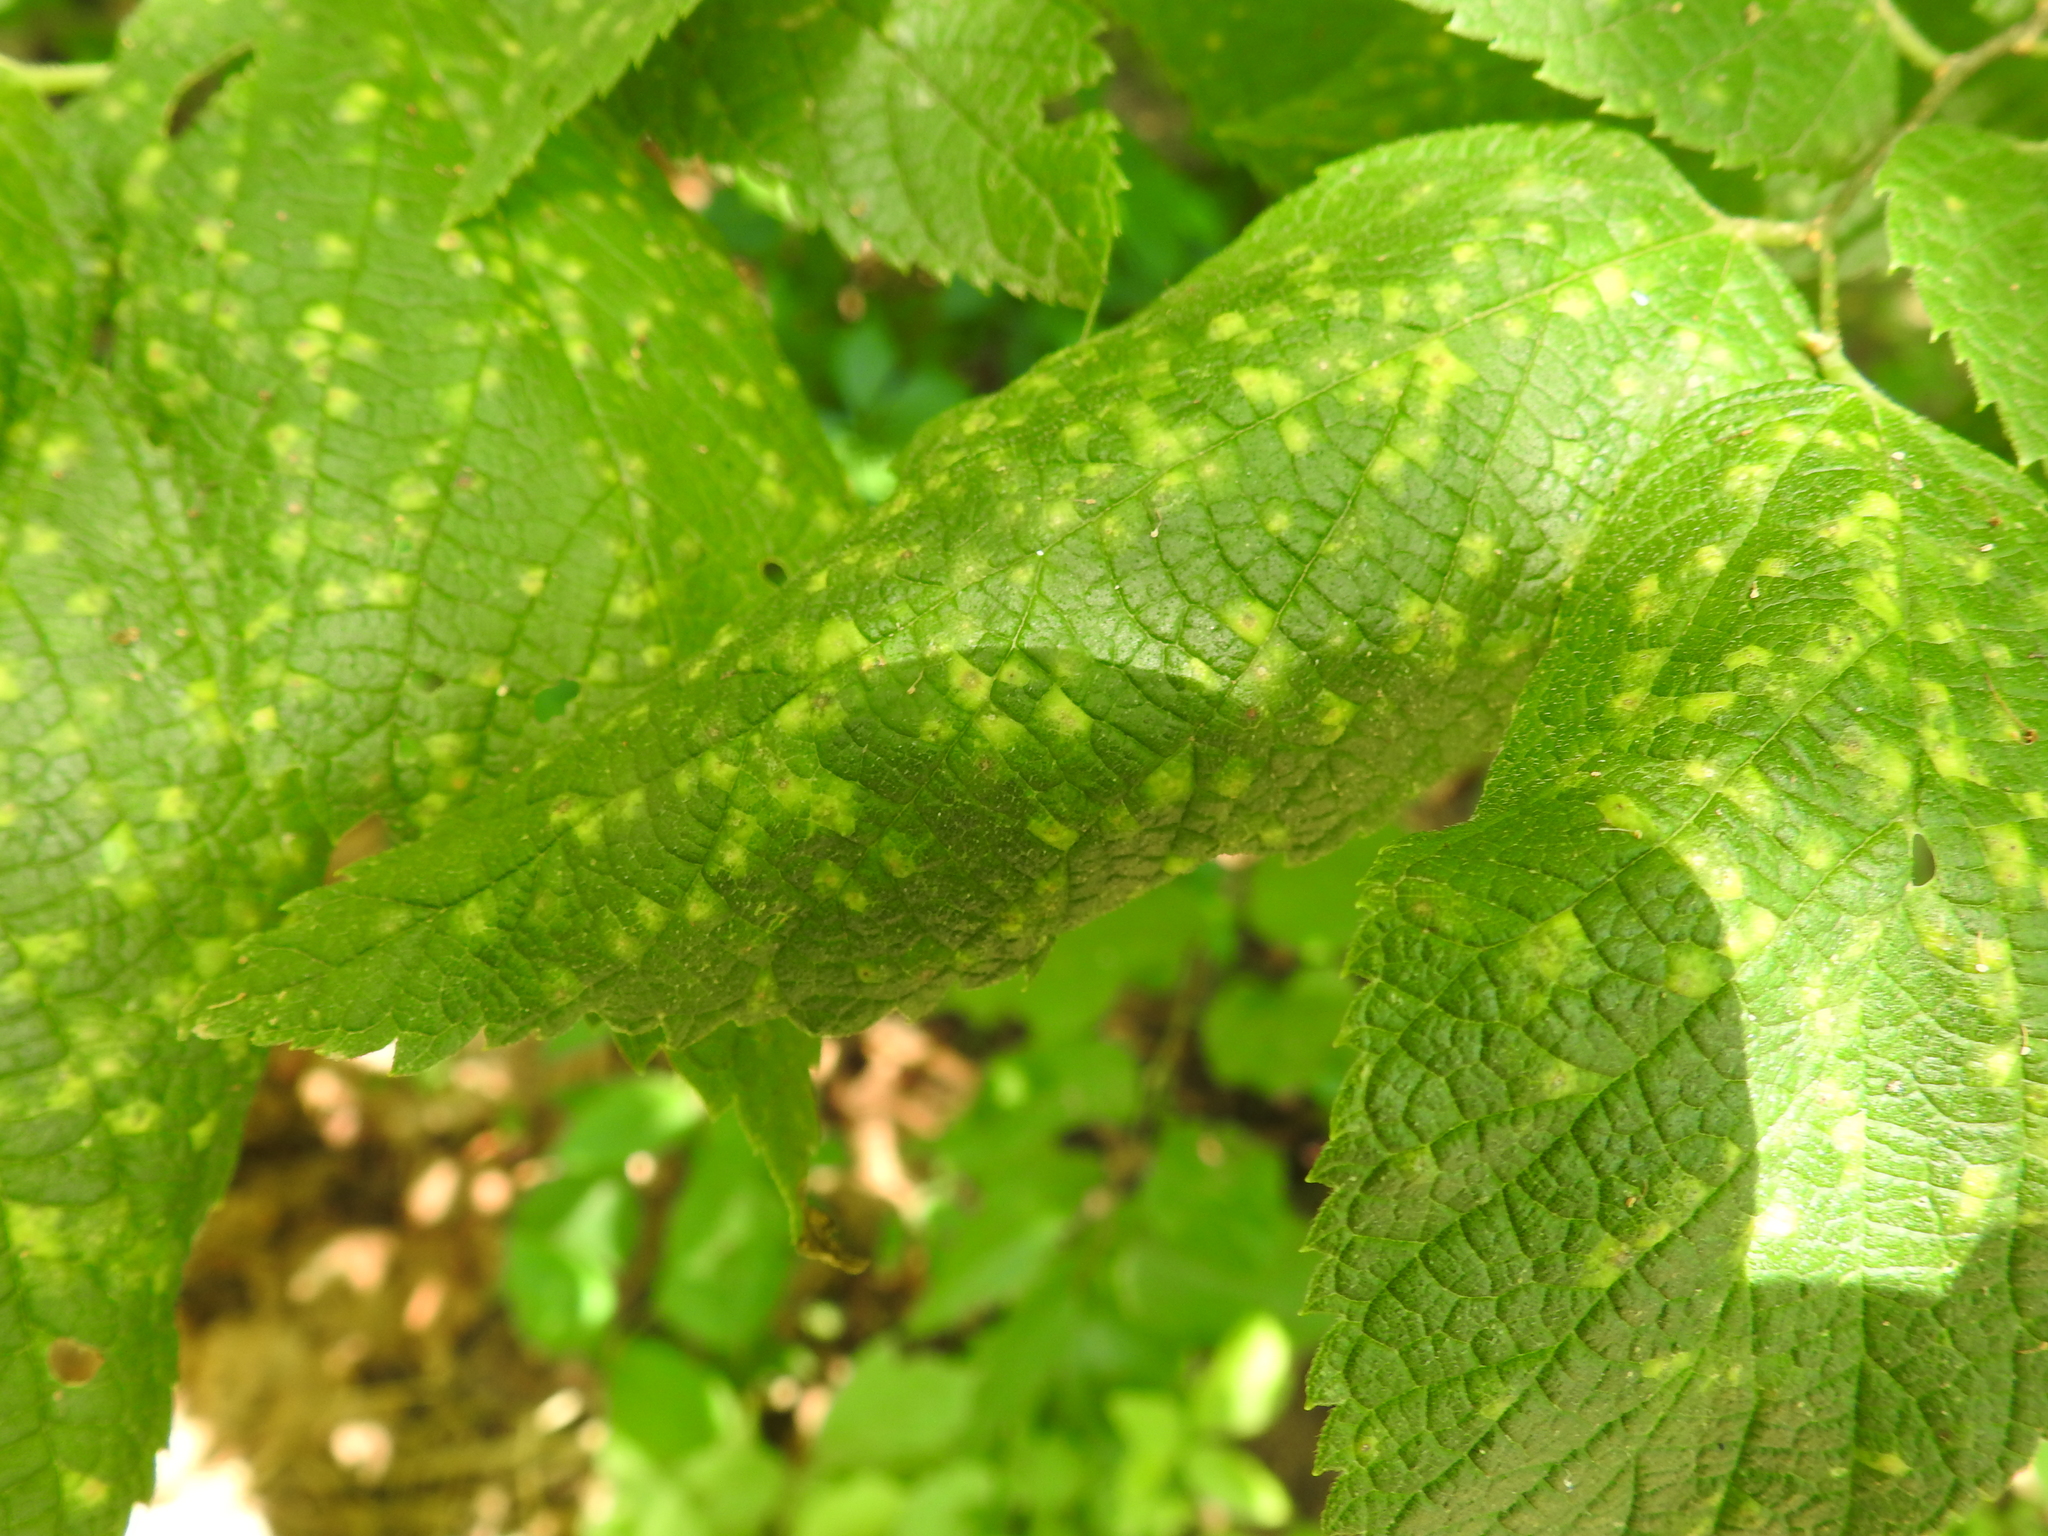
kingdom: Animalia
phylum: Arthropoda
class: Insecta
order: Hemiptera
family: Aphalaridae
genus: Pachypsylla
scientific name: Pachypsylla celtidisvesicula
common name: Hackberry blister gall psyllid
